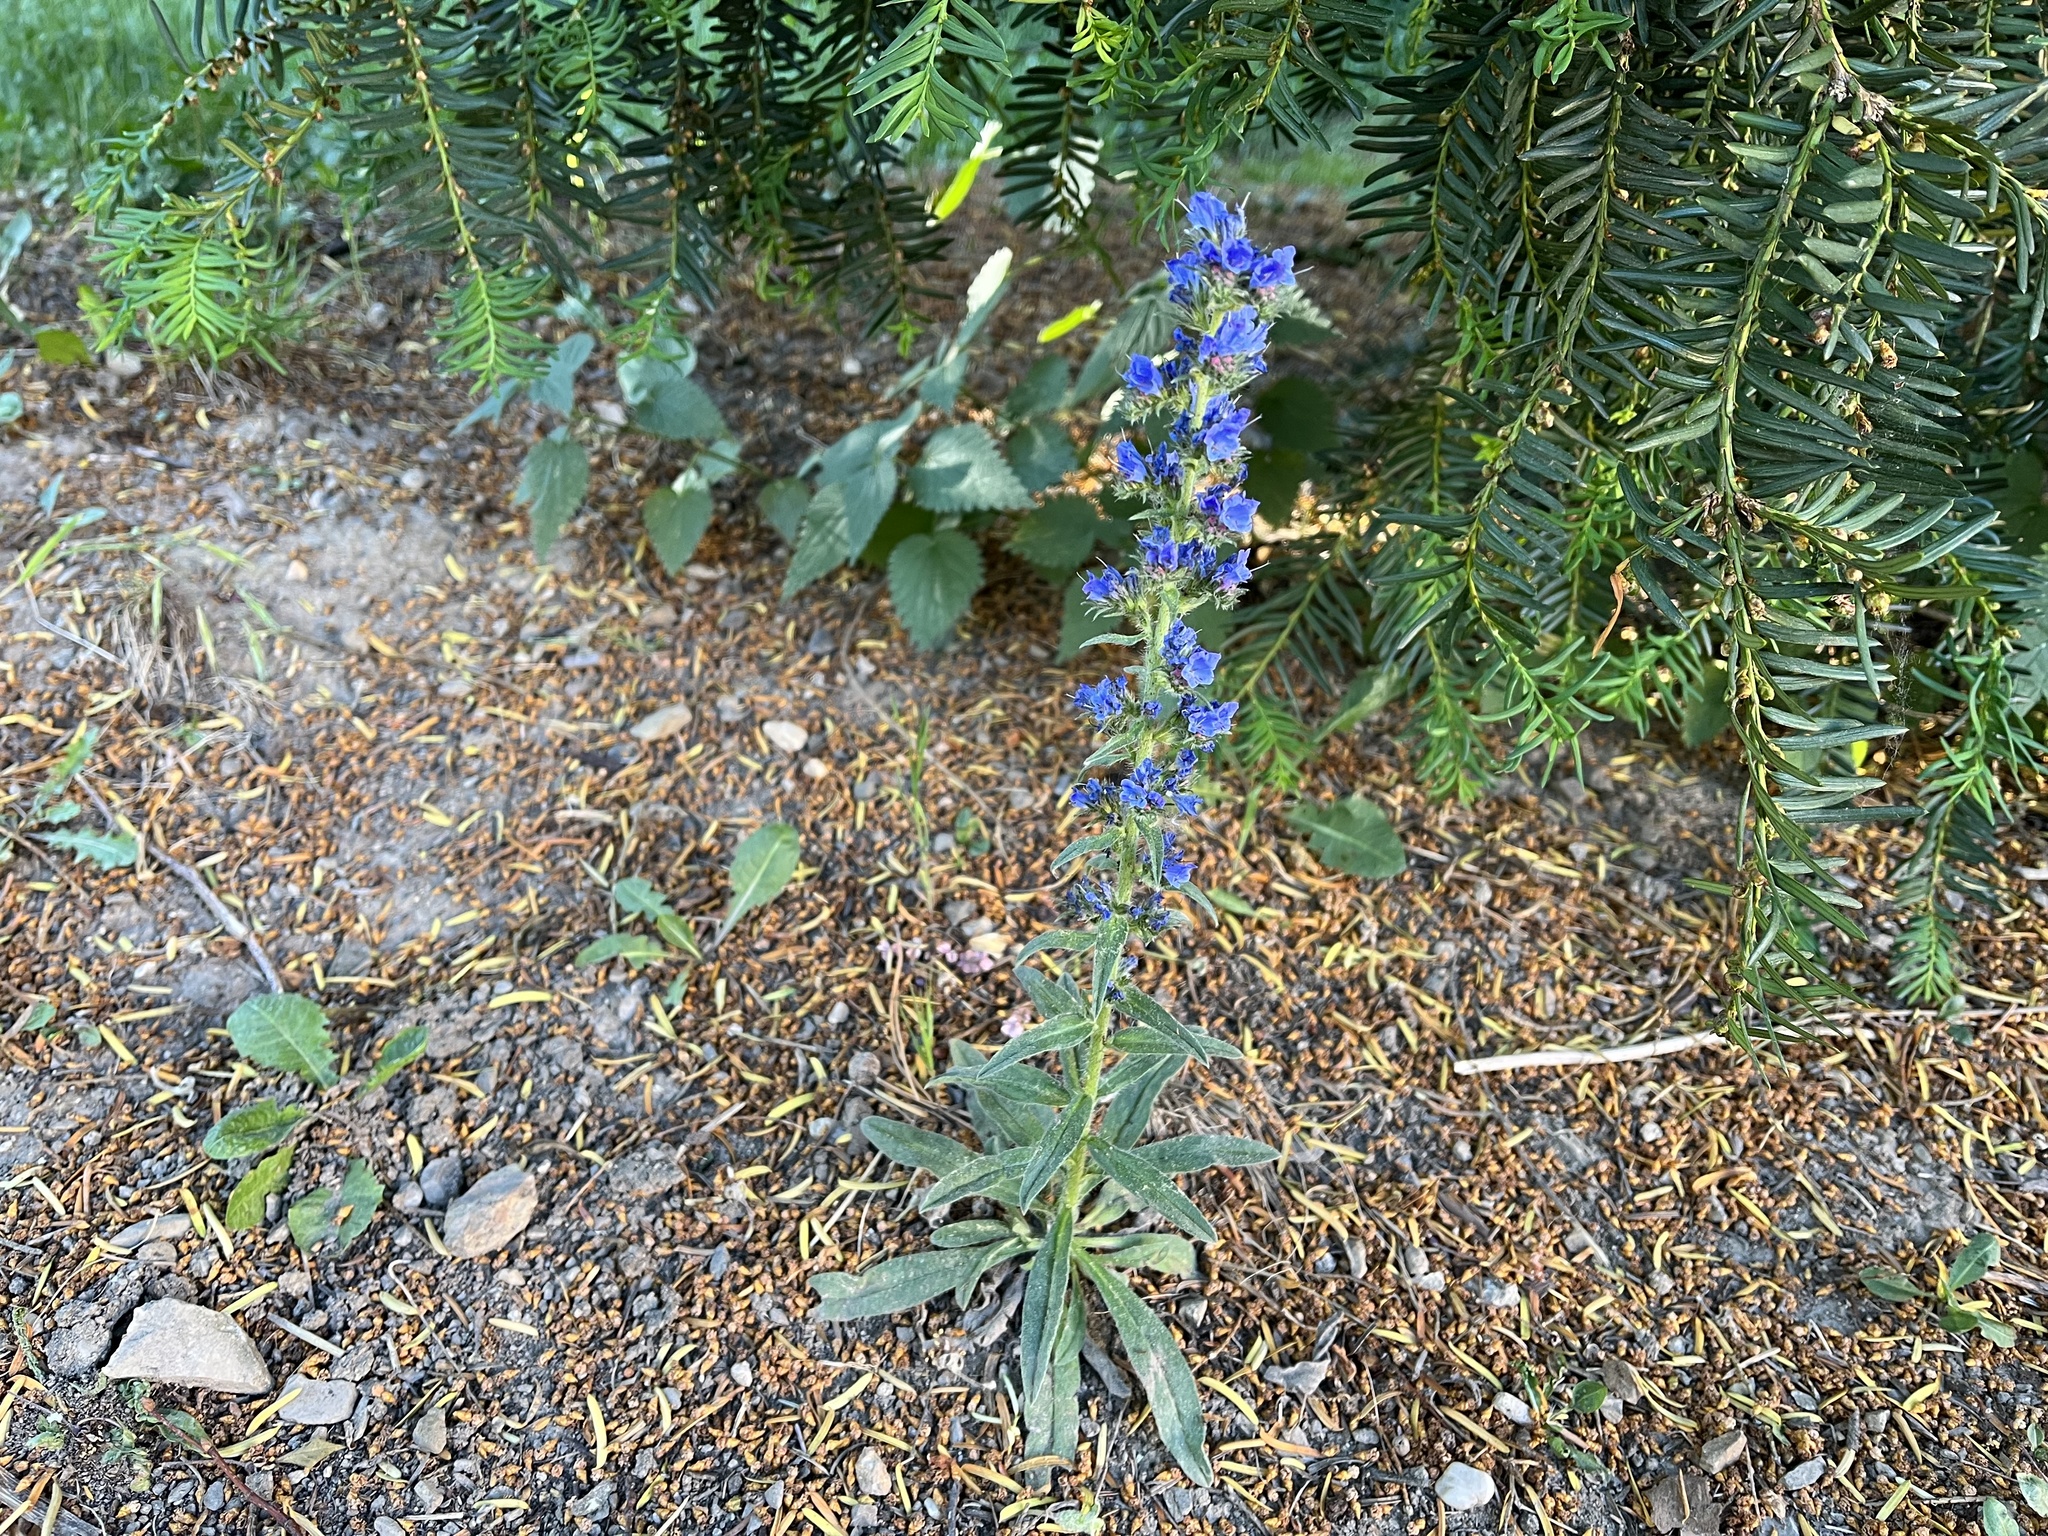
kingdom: Plantae
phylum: Tracheophyta
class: Magnoliopsida
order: Boraginales
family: Boraginaceae
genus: Echium
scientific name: Echium vulgare
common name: Common viper's bugloss
